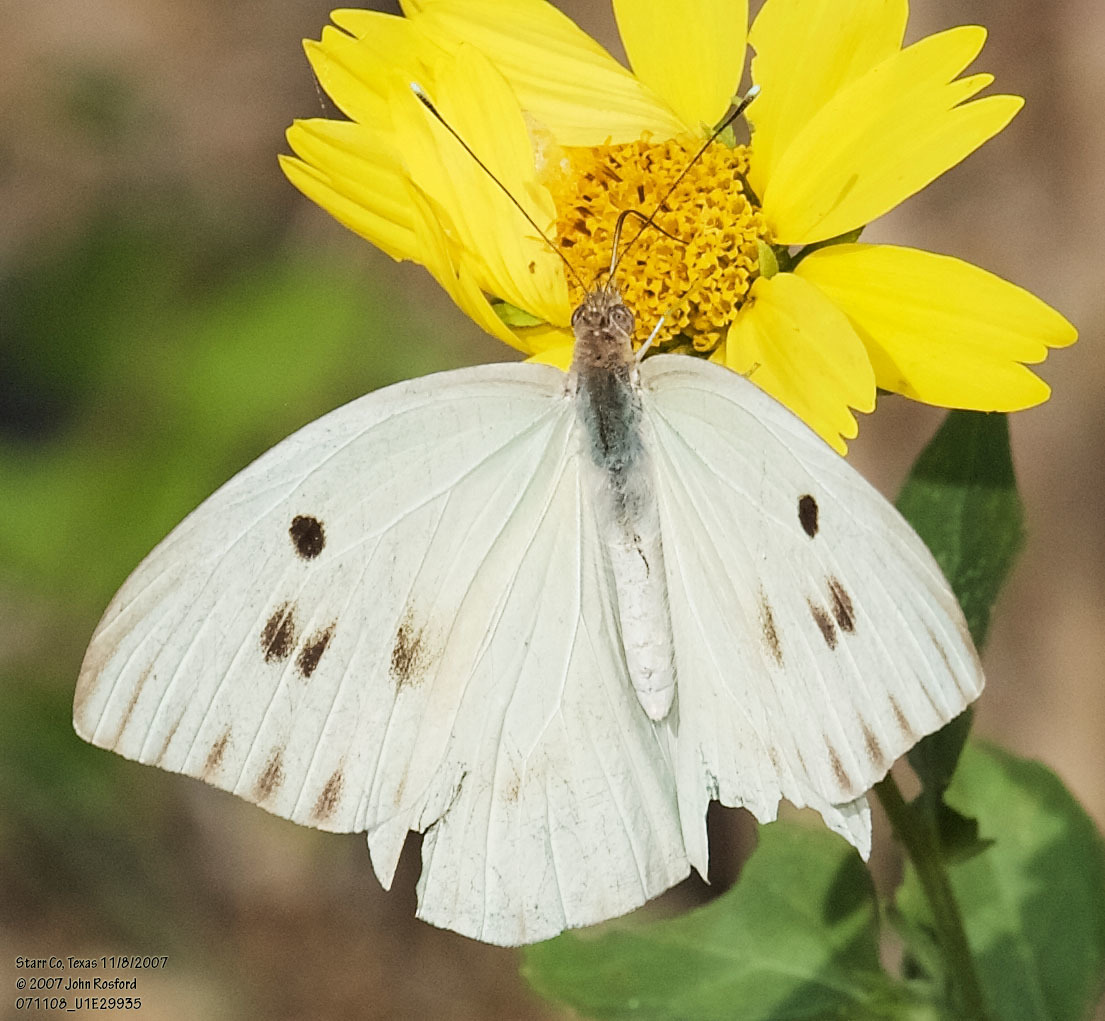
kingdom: Animalia
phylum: Arthropoda
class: Insecta
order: Lepidoptera
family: Pieridae
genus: Ganyra
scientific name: Ganyra josephina
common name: Giant white
